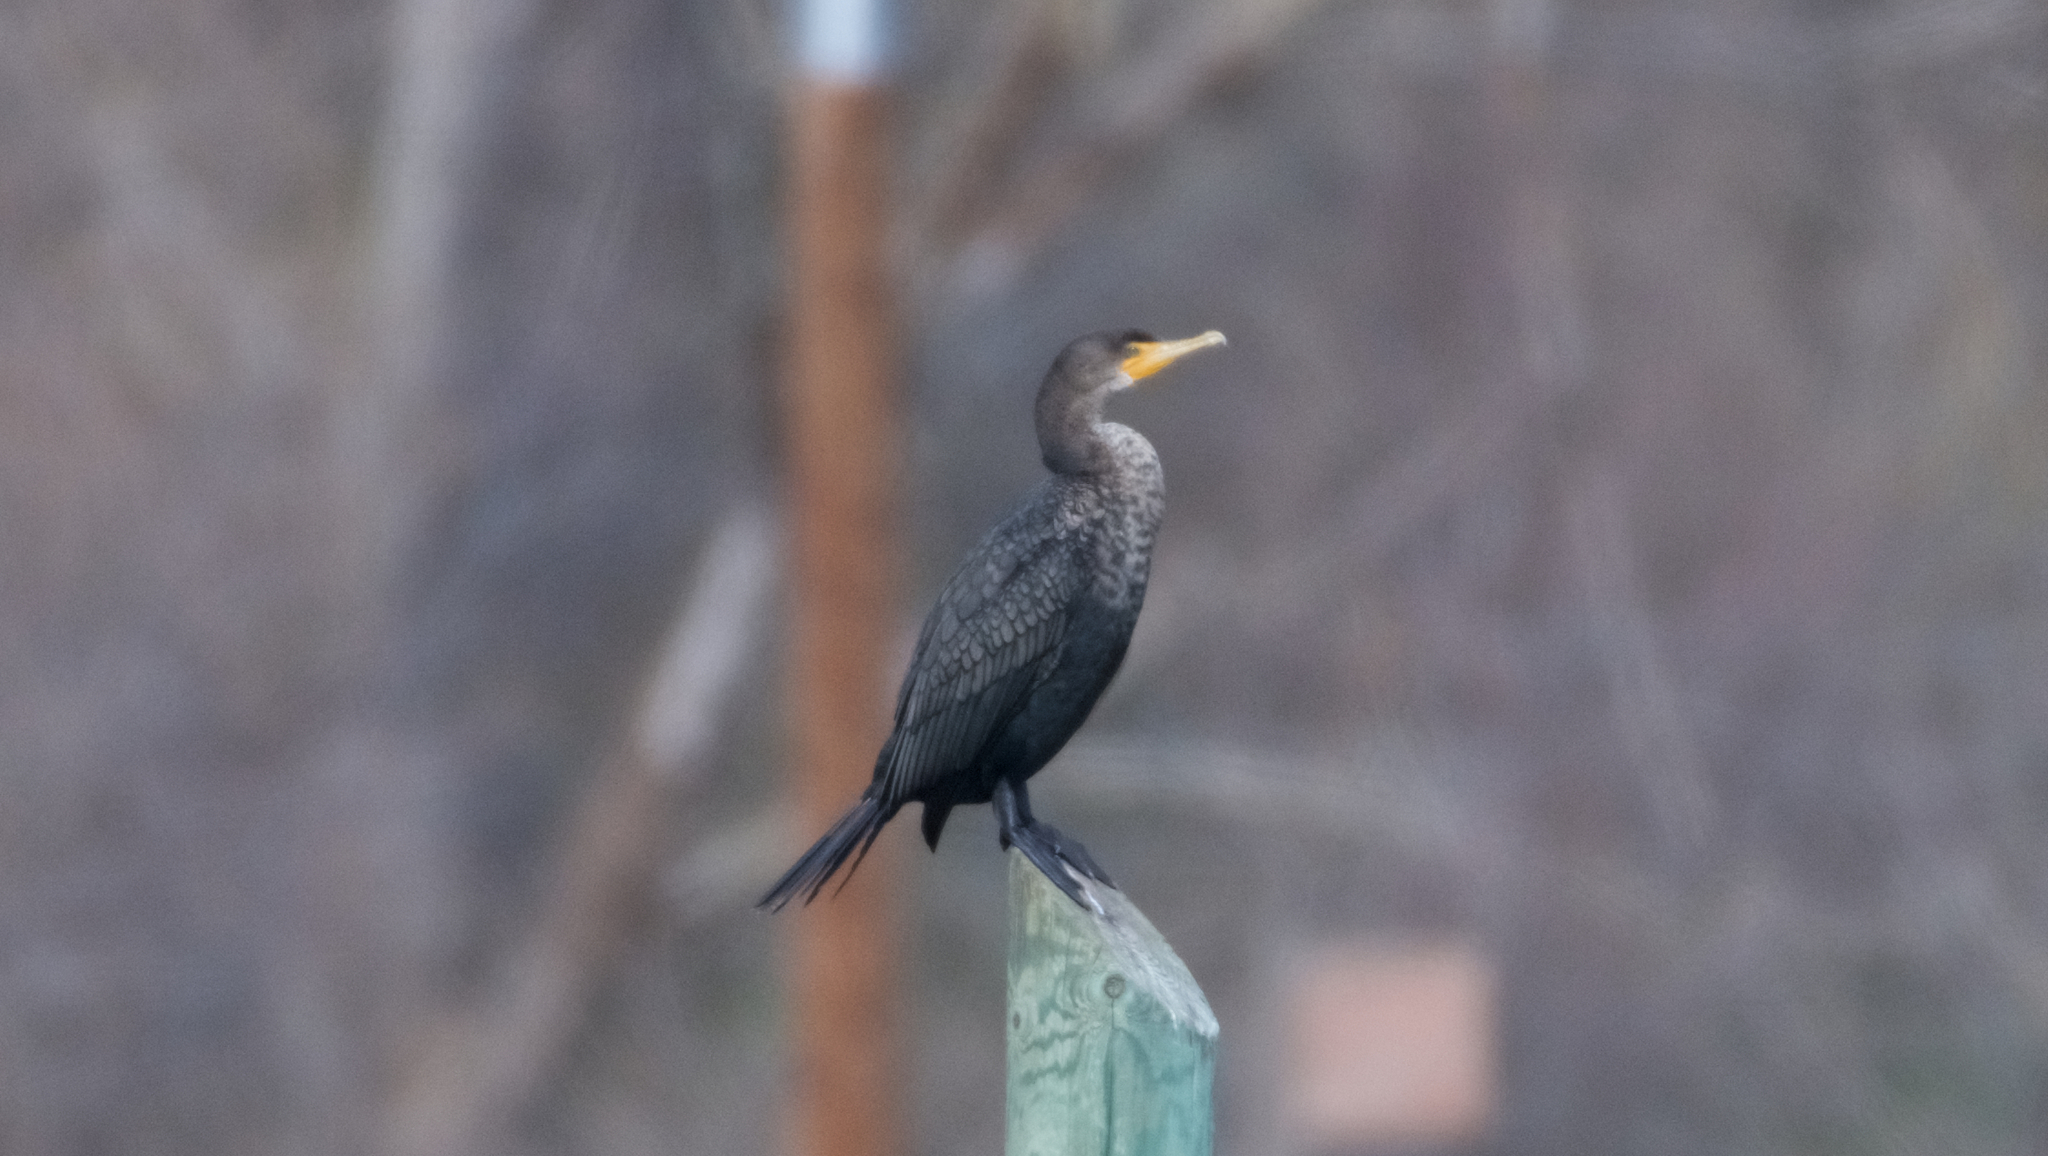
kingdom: Animalia
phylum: Chordata
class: Aves
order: Suliformes
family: Phalacrocoracidae
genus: Phalacrocorax
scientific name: Phalacrocorax auritus
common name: Double-crested cormorant
